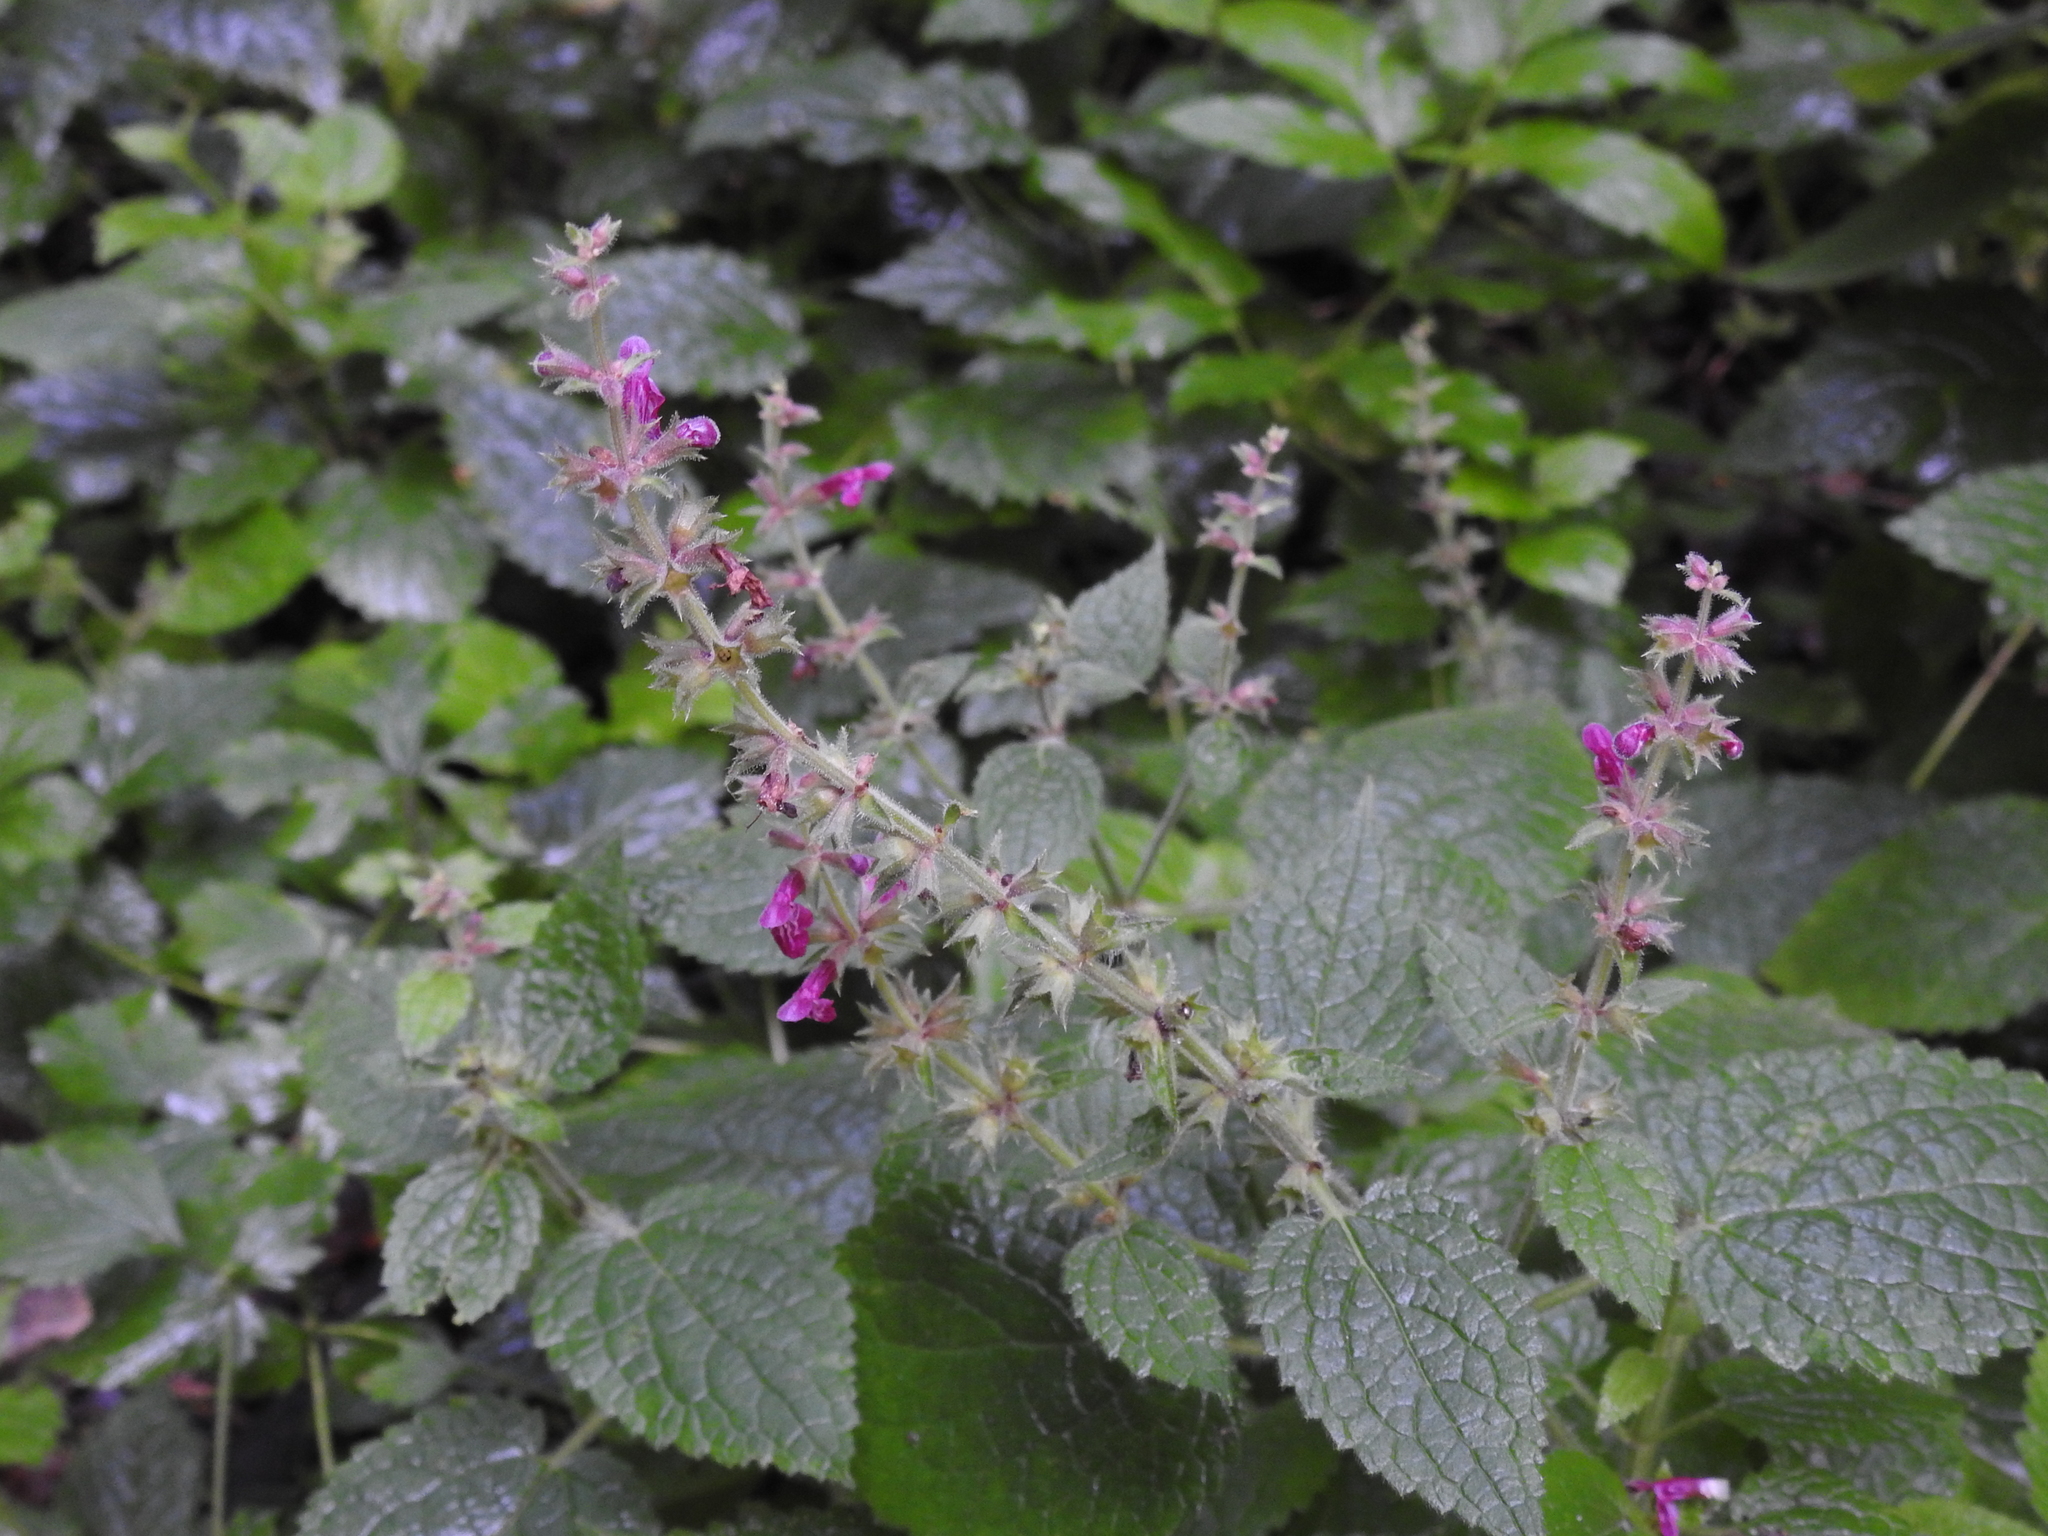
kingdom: Plantae
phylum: Tracheophyta
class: Magnoliopsida
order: Lamiales
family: Lamiaceae
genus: Stachys
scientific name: Stachys sylvatica
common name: Hedge woundwort
